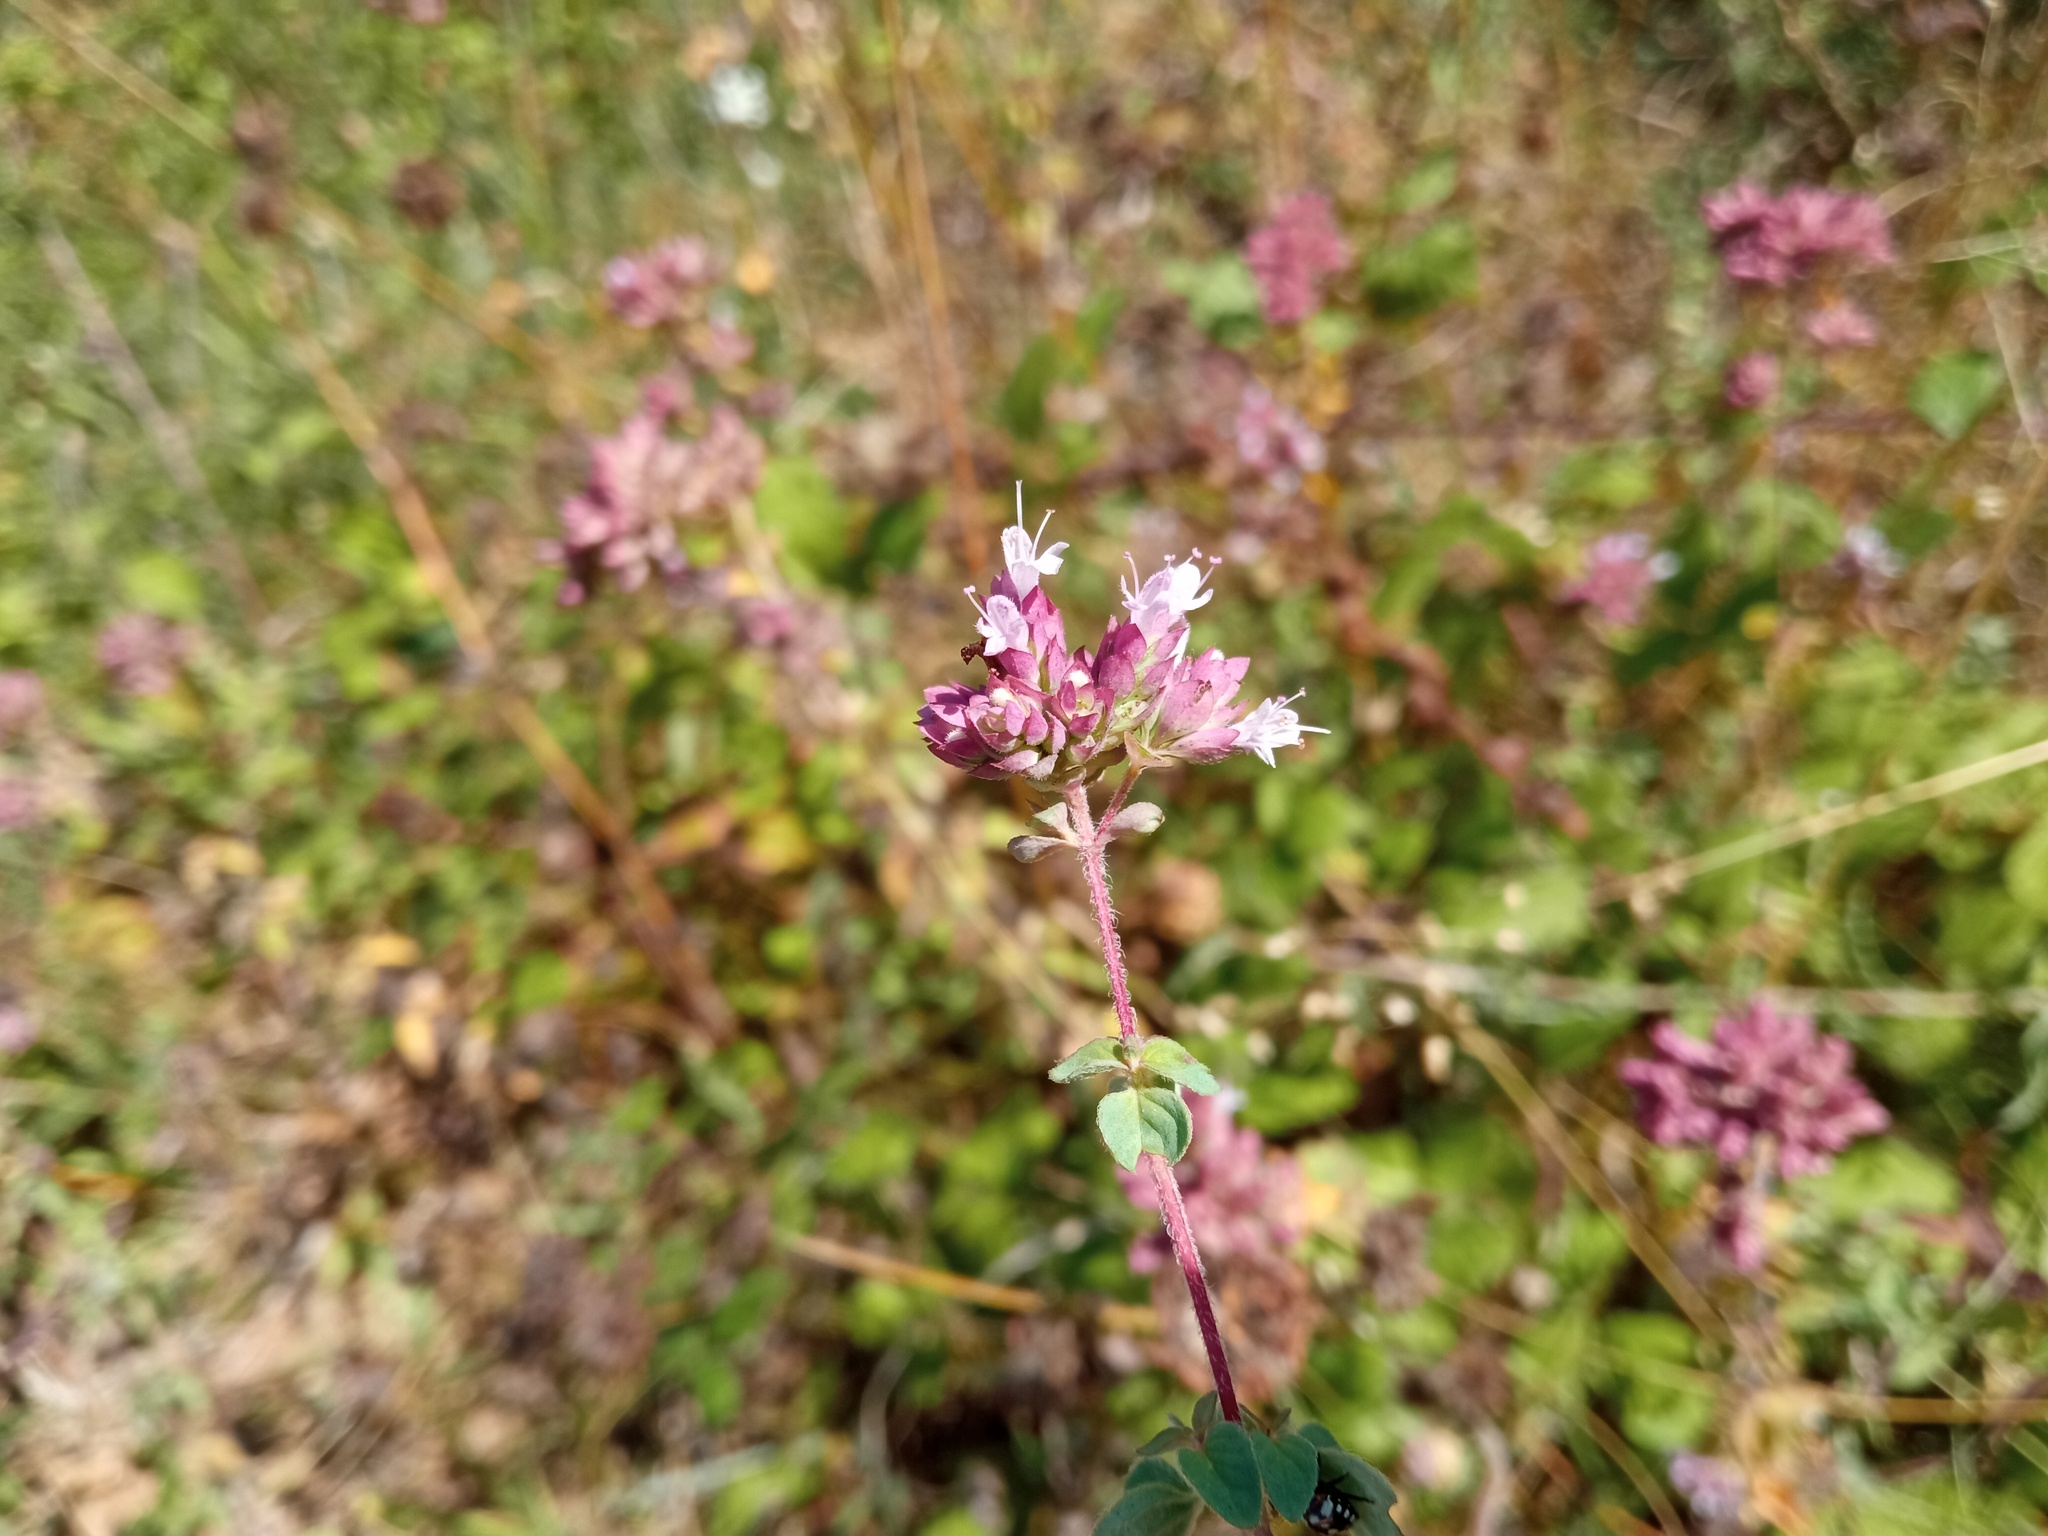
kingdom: Plantae
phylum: Tracheophyta
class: Magnoliopsida
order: Lamiales
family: Lamiaceae
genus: Origanum
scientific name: Origanum vulgare
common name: Wild marjoram
